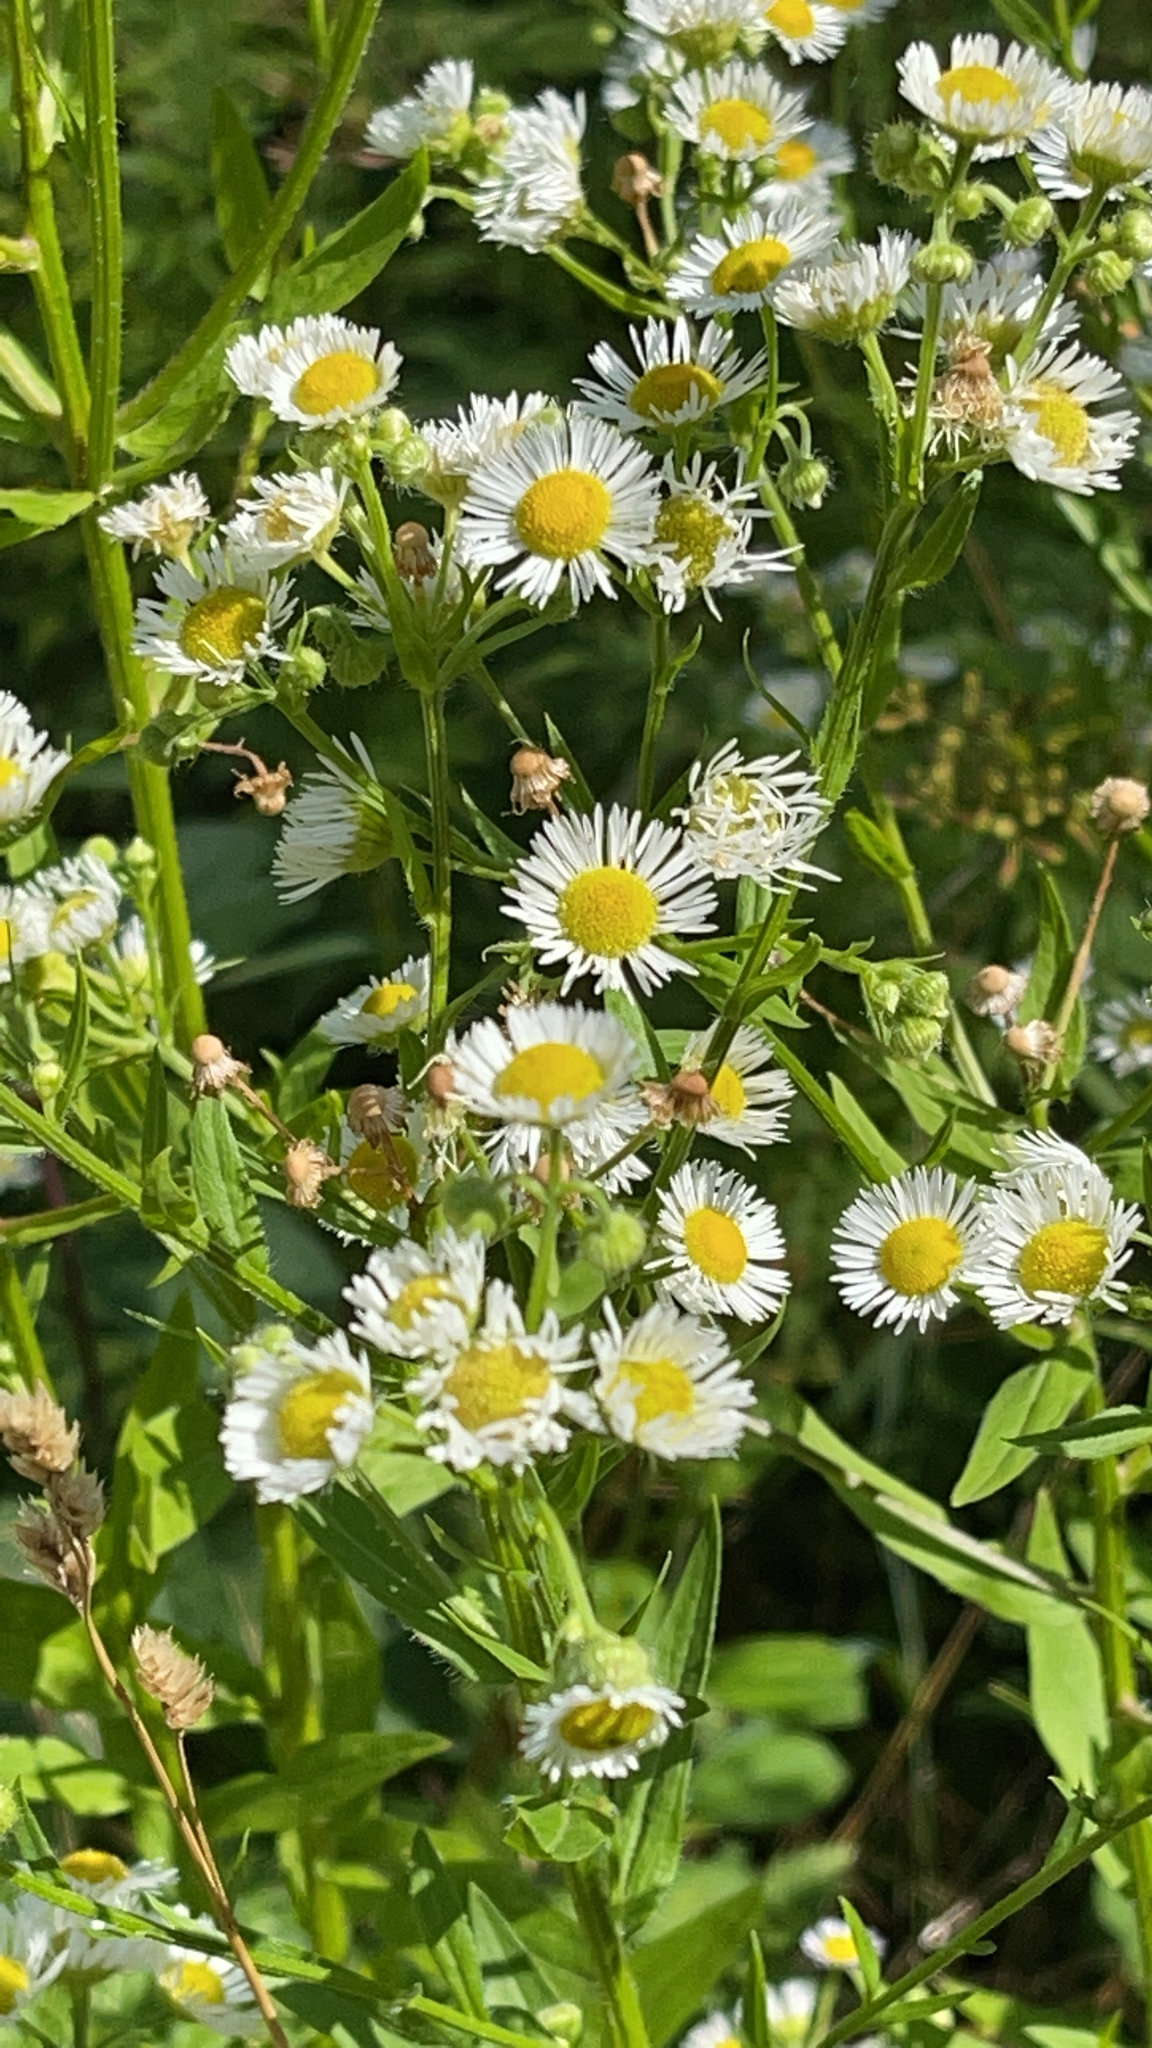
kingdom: Plantae
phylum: Tracheophyta
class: Magnoliopsida
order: Asterales
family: Asteraceae
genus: Erigeron
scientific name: Erigeron annuus
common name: Tall fleabane
